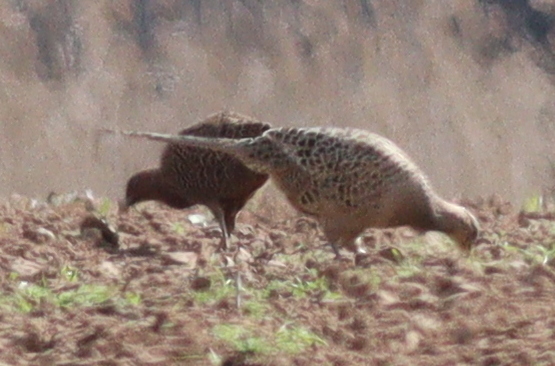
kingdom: Animalia
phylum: Chordata
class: Aves
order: Galliformes
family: Phasianidae
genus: Phasianus
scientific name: Phasianus colchicus
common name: Common pheasant
